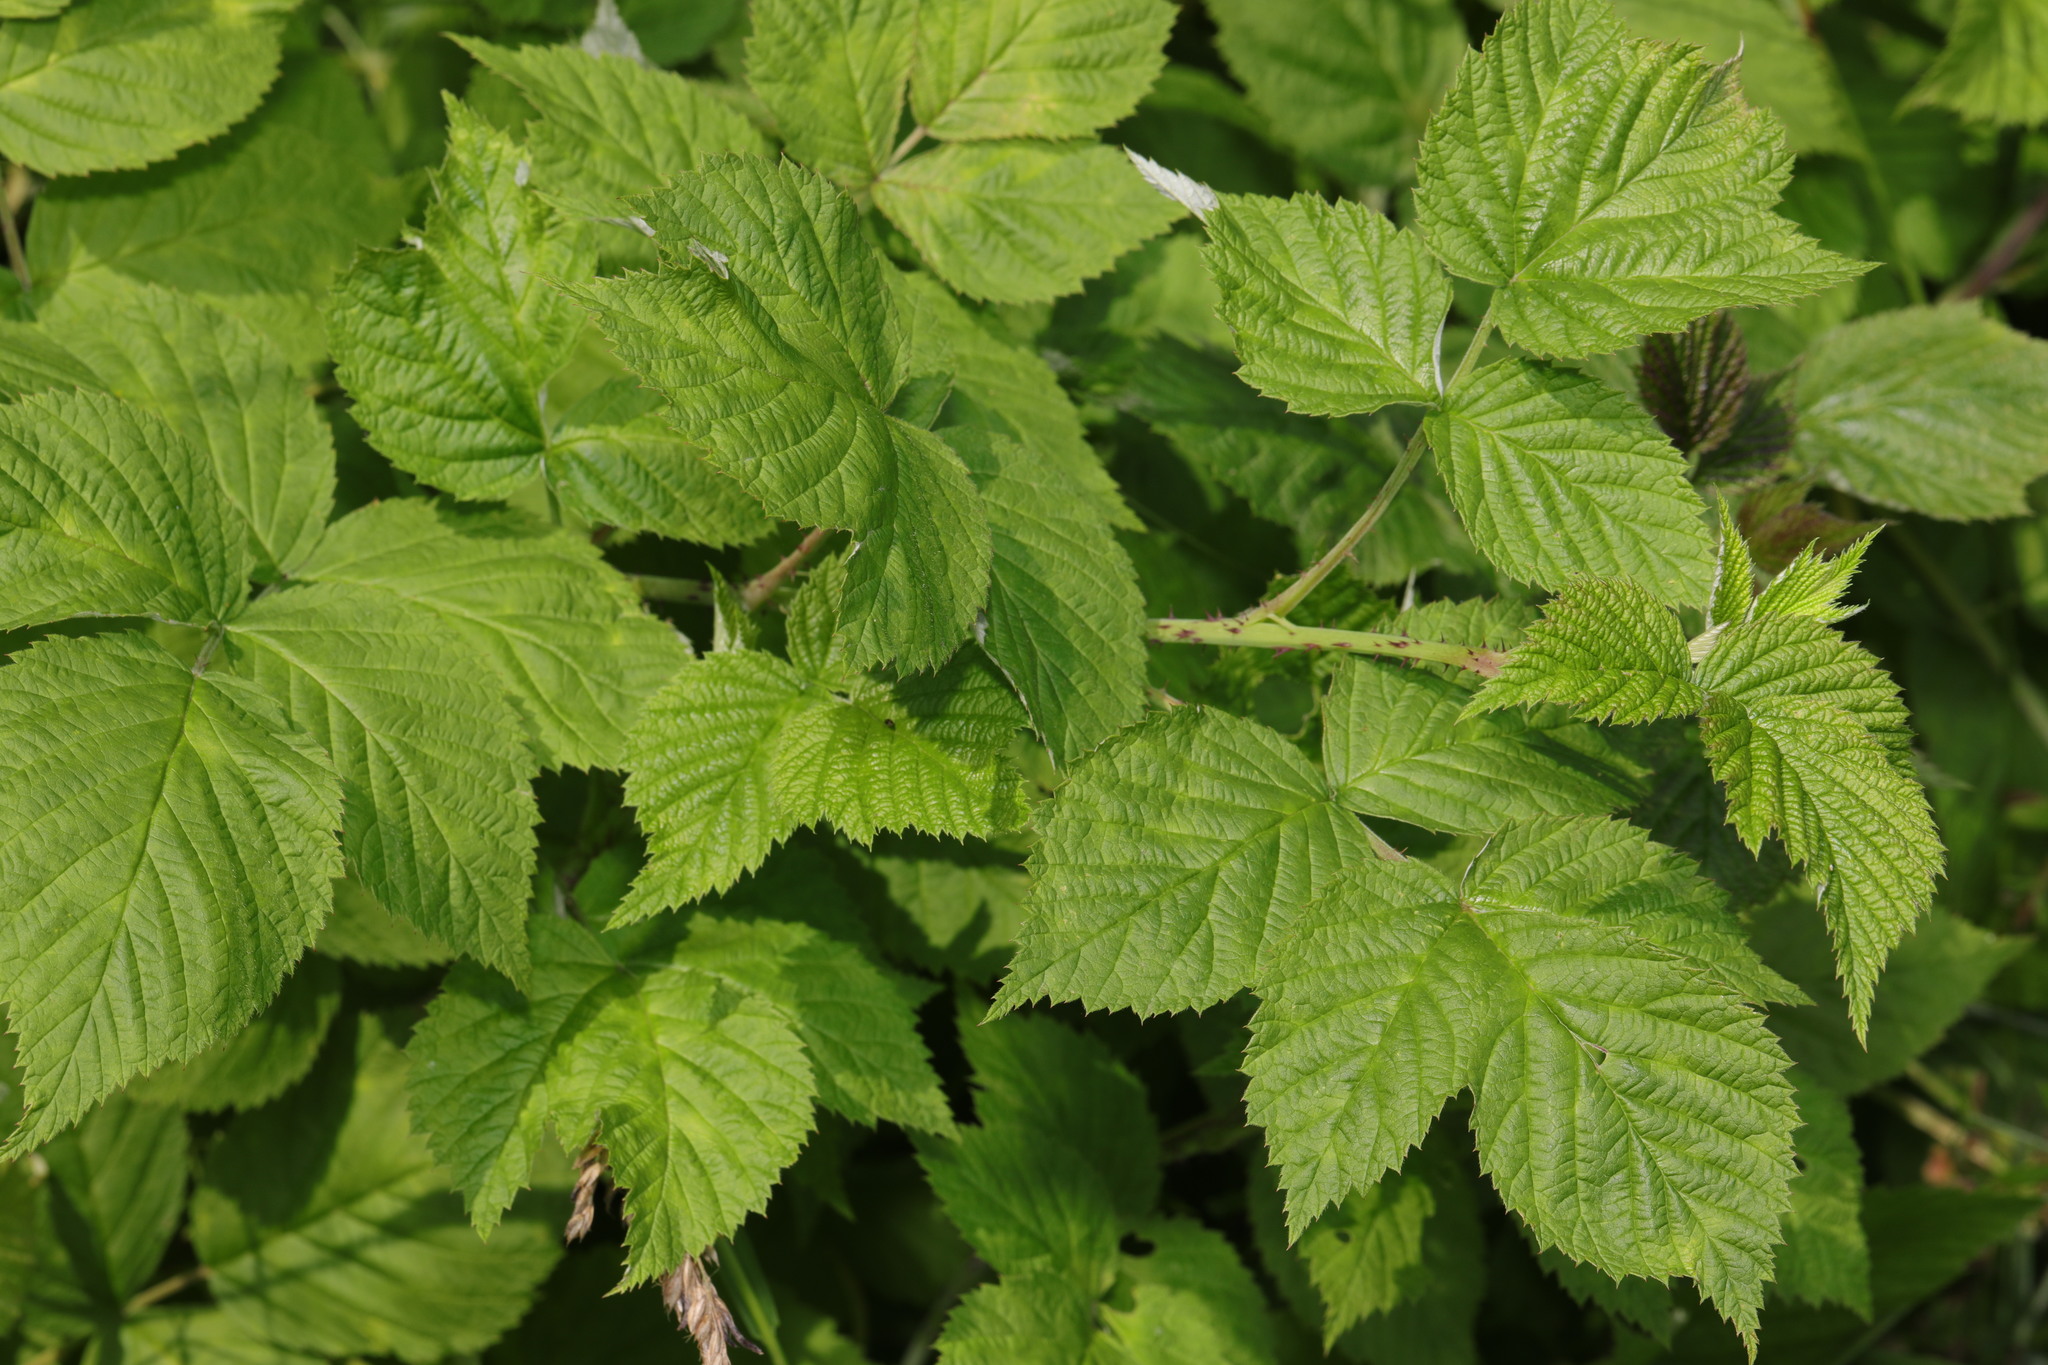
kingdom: Plantae
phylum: Tracheophyta
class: Magnoliopsida
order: Rosales
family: Rosaceae
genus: Rubus
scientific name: Rubus idaeus
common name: Raspberry
